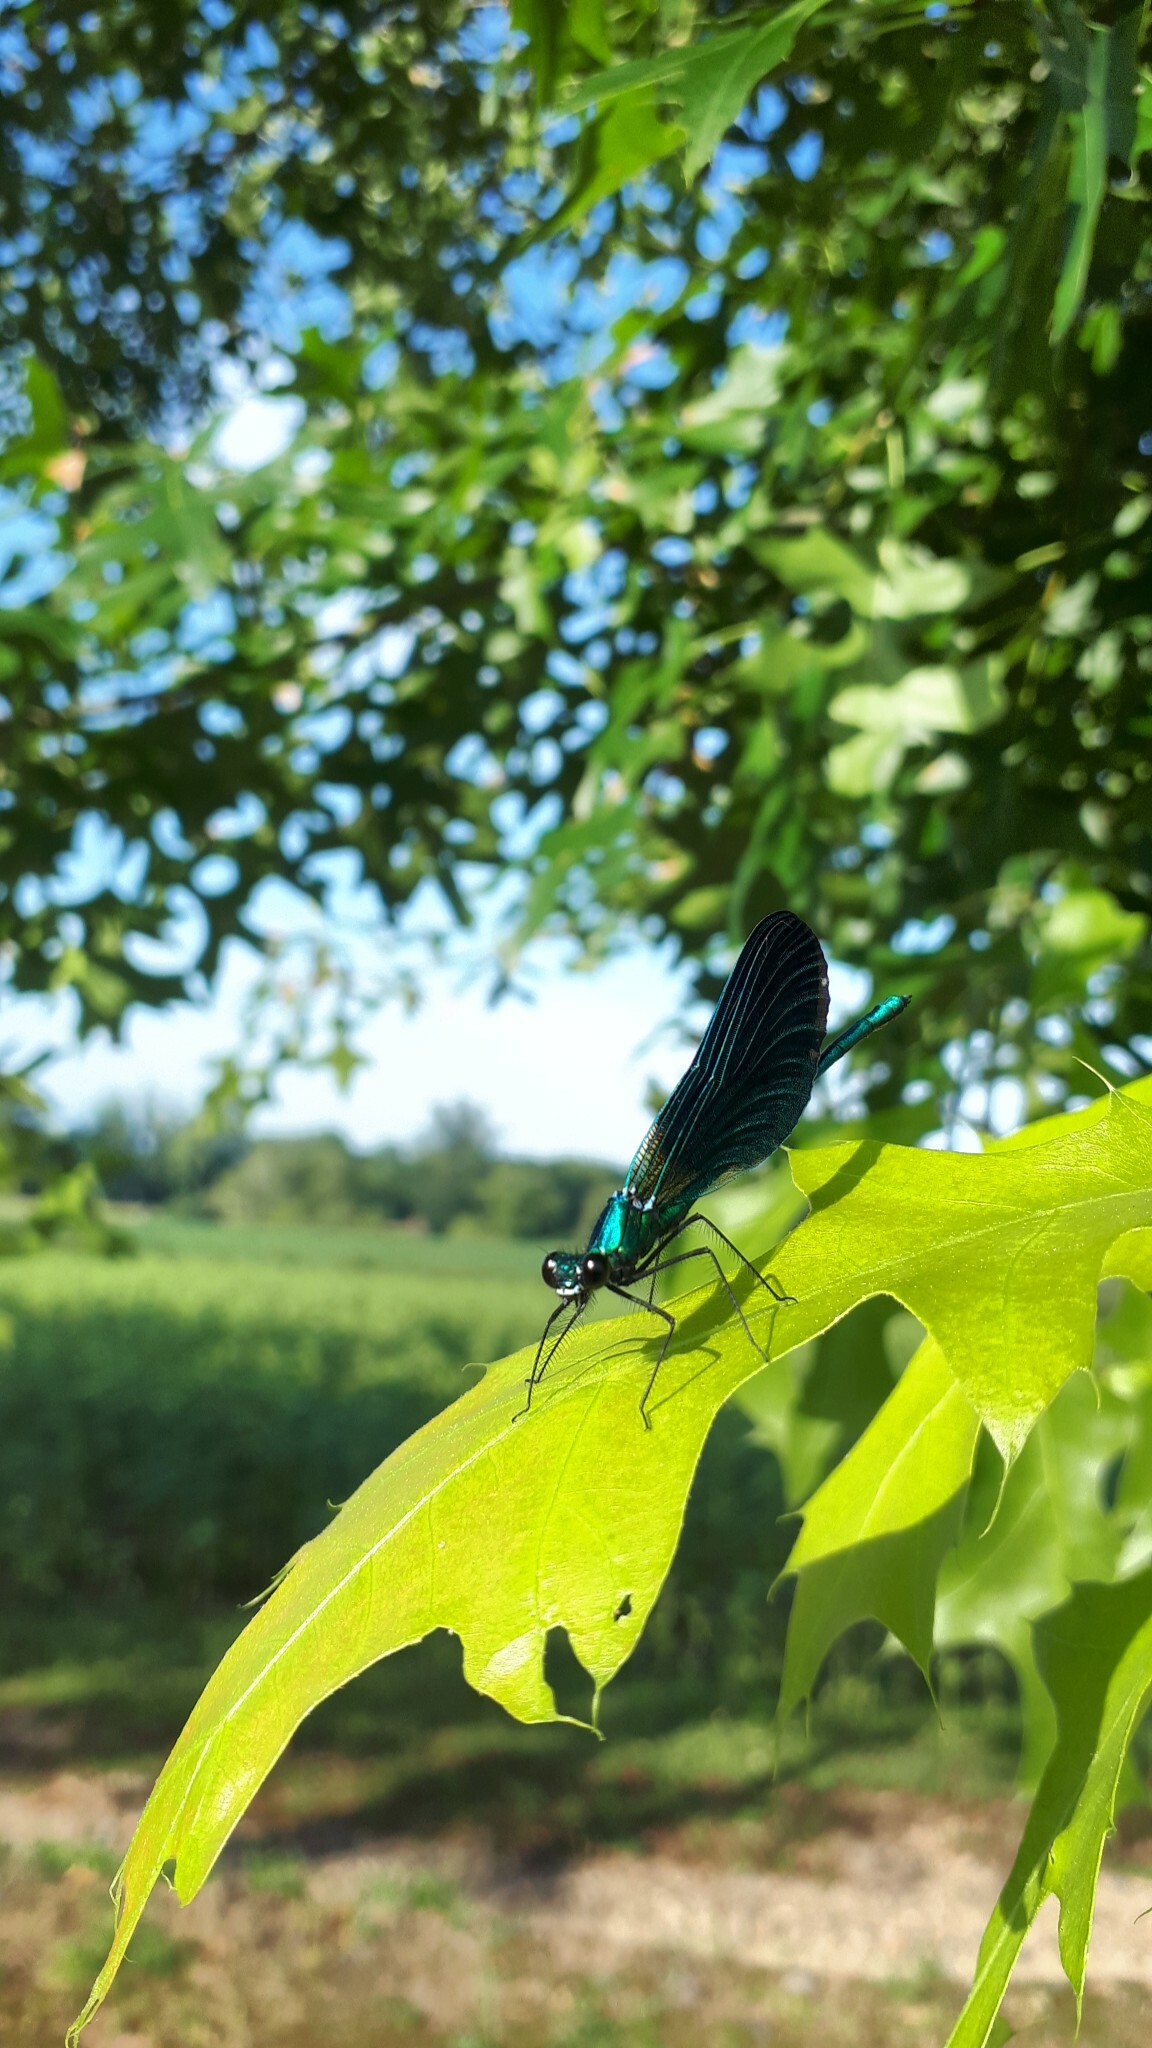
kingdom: Animalia
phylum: Arthropoda
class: Insecta
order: Odonata
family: Calopterygidae
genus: Calopteryx
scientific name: Calopteryx virgo
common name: Beautiful demoiselle
